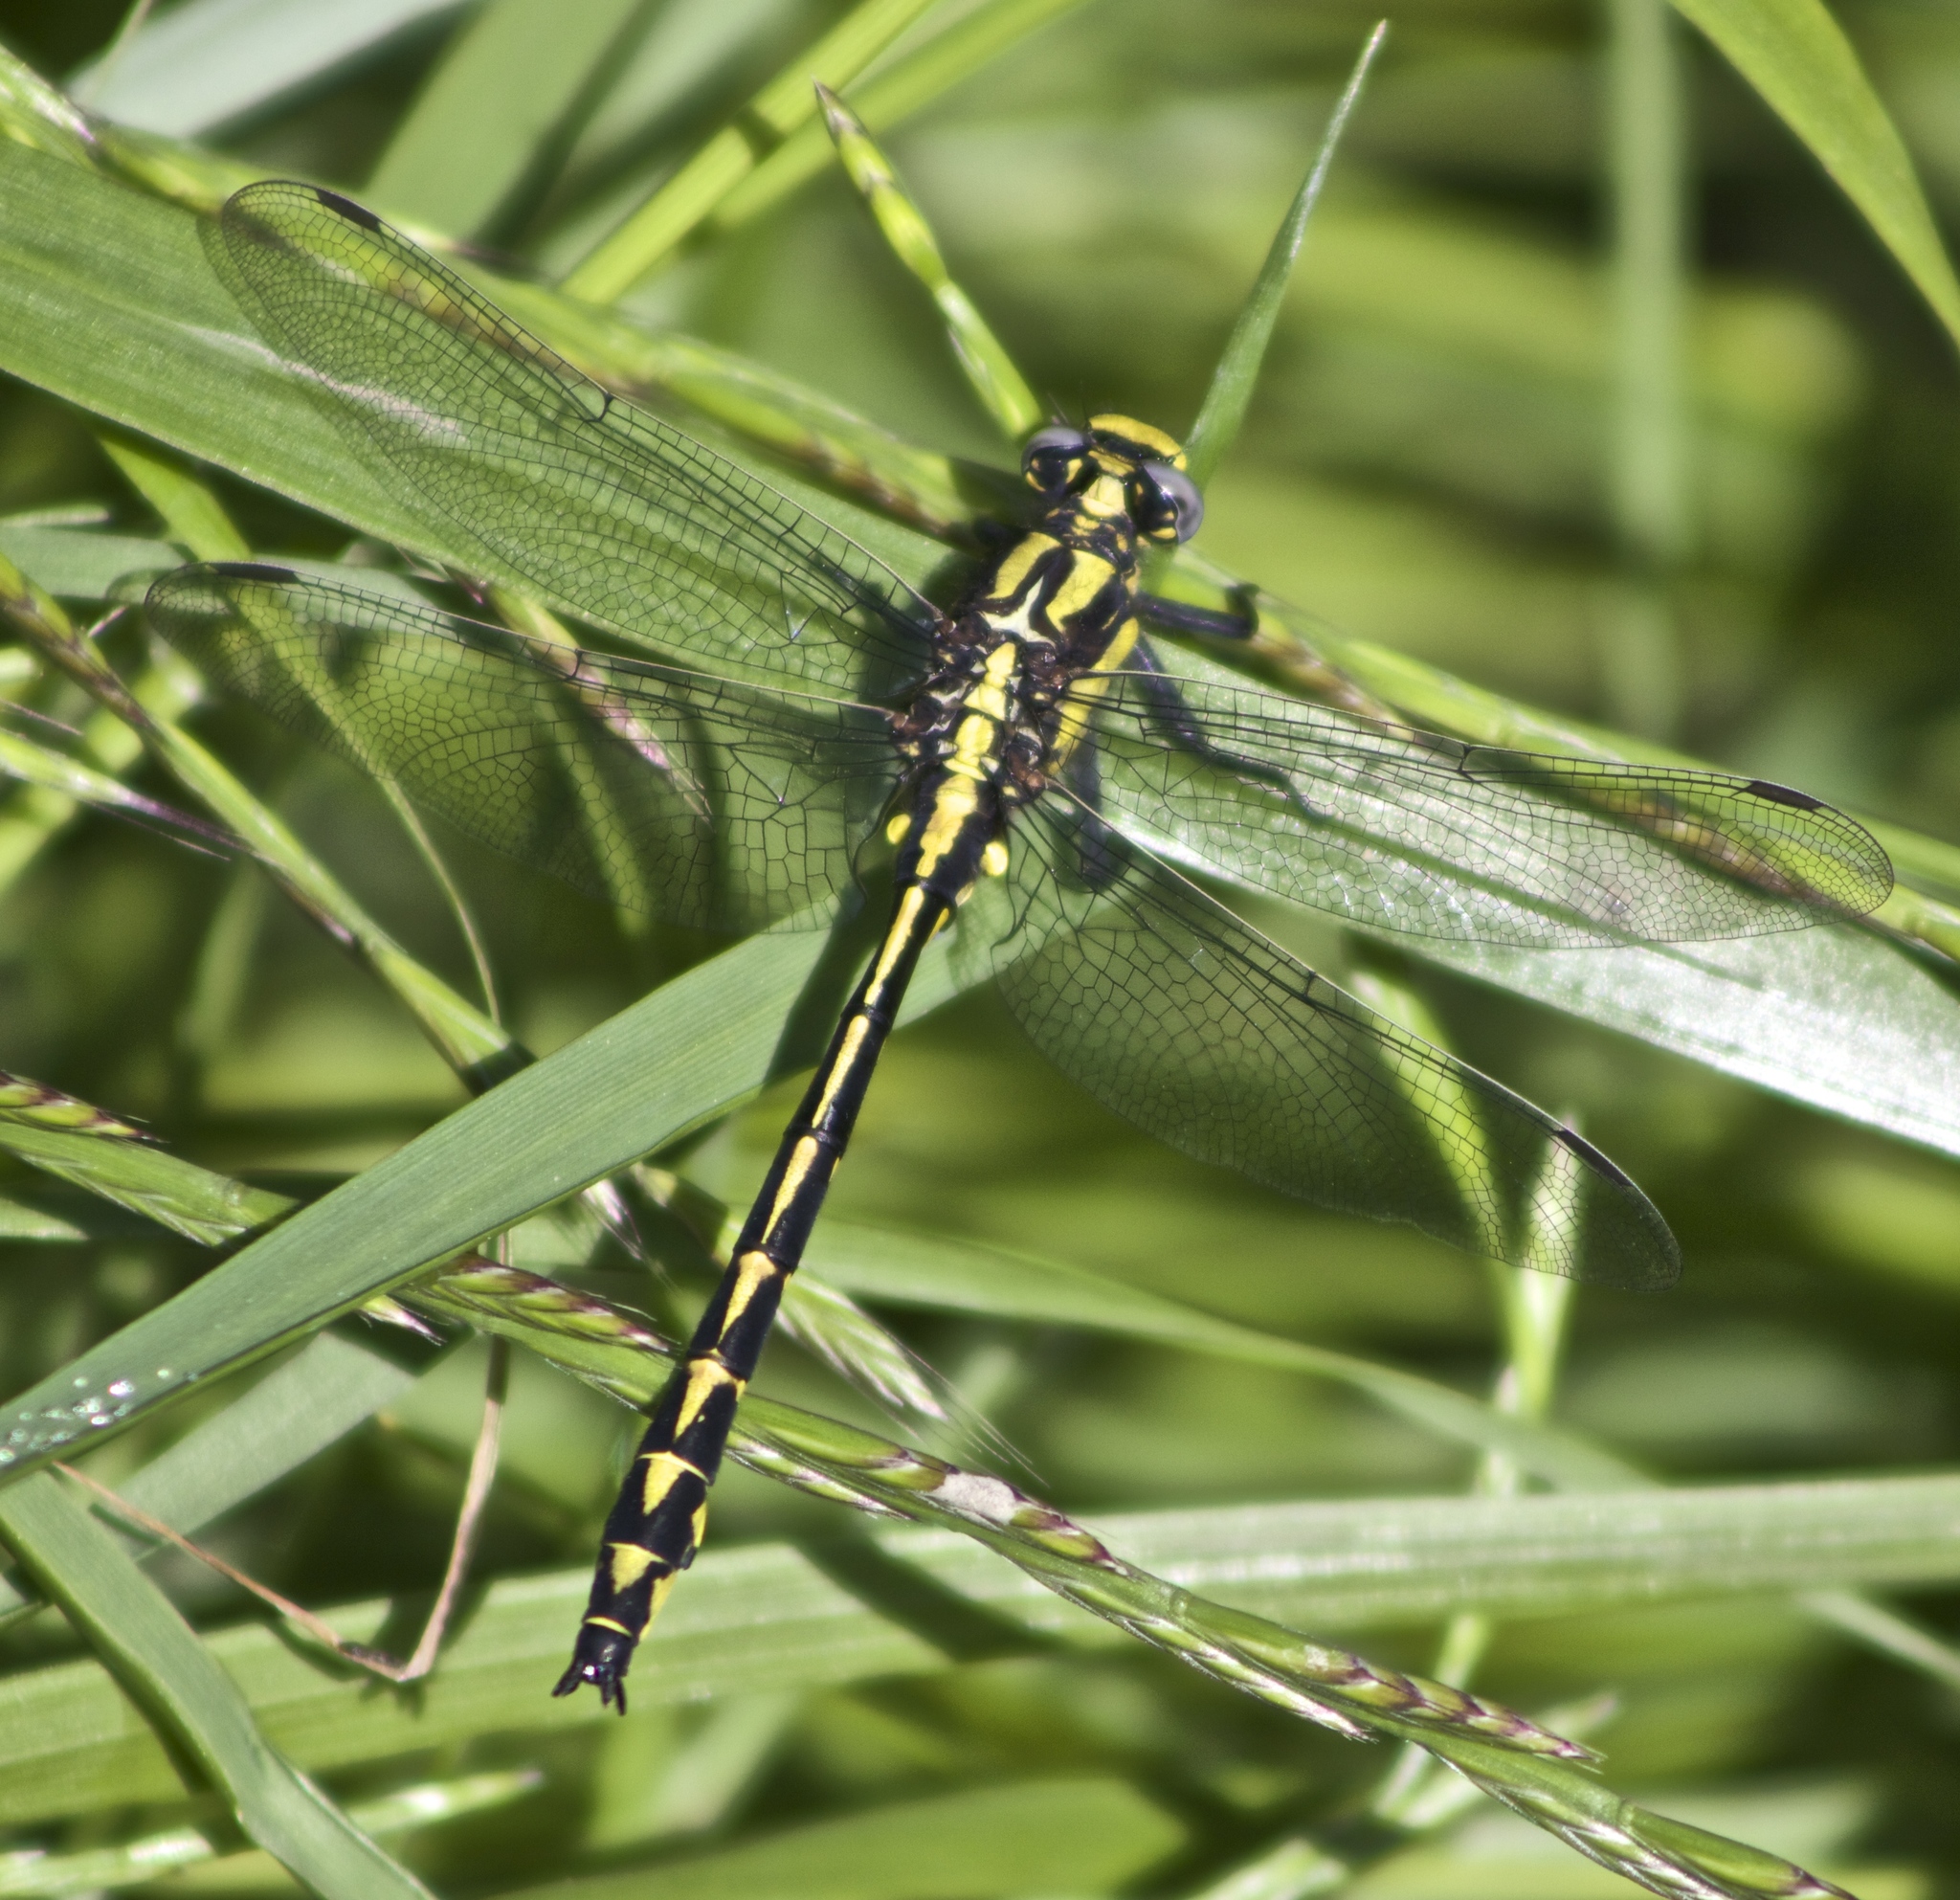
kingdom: Animalia
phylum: Arthropoda
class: Insecta
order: Odonata
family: Gomphidae
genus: Phanogomphus
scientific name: Phanogomphus kurilis
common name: Pacific clubtail
